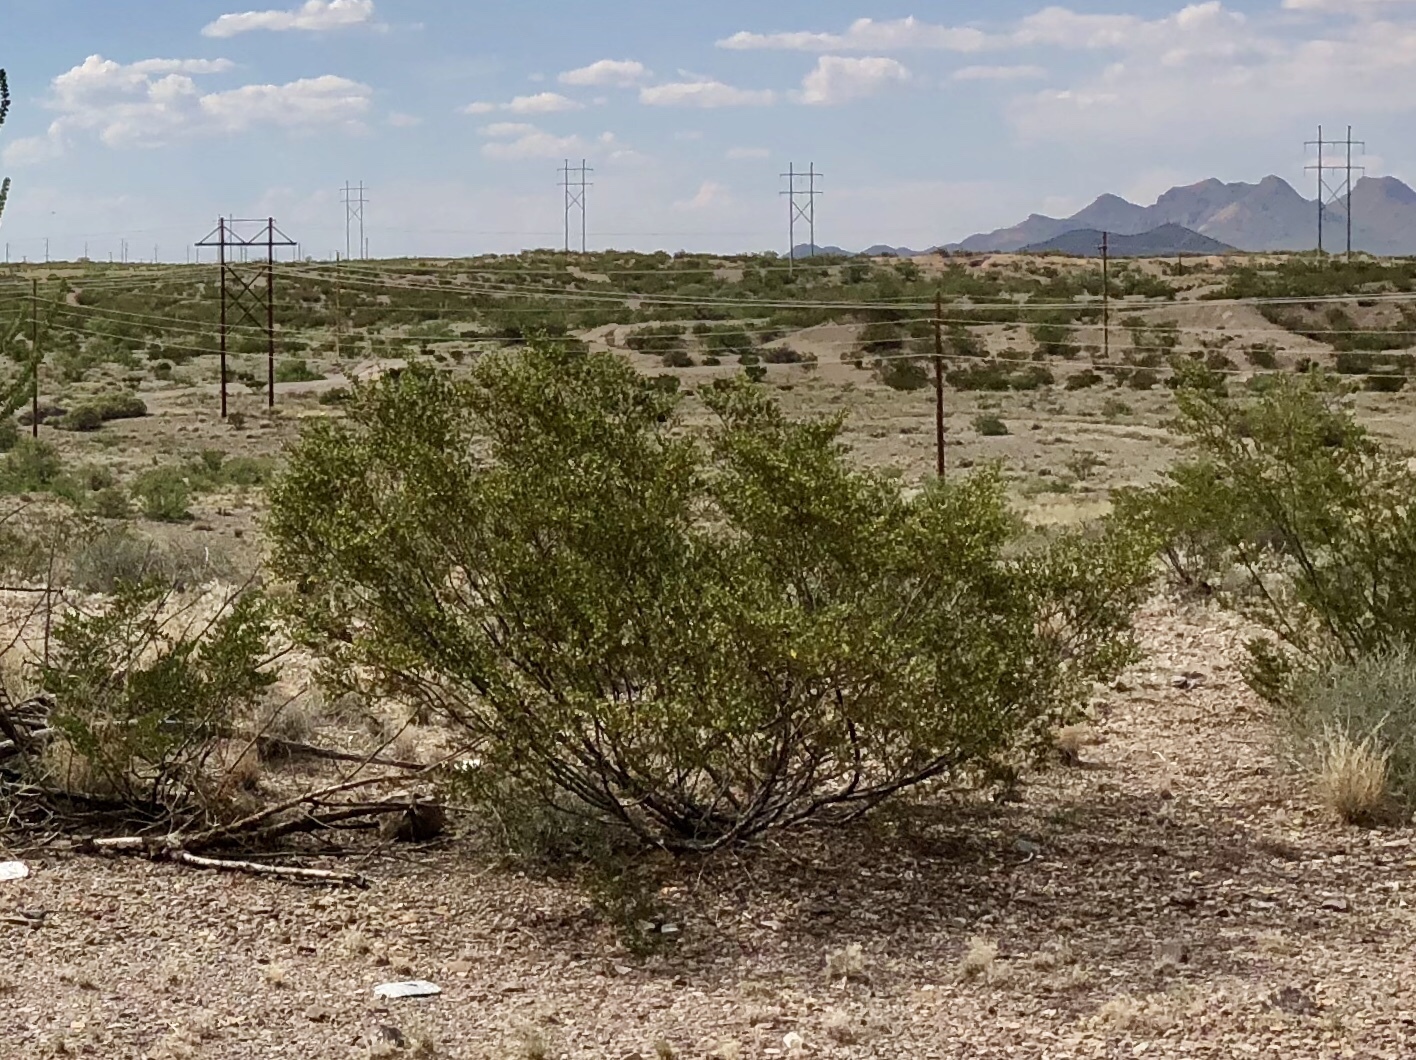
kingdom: Plantae
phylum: Tracheophyta
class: Magnoliopsida
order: Zygophyllales
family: Zygophyllaceae
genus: Larrea
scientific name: Larrea tridentata
